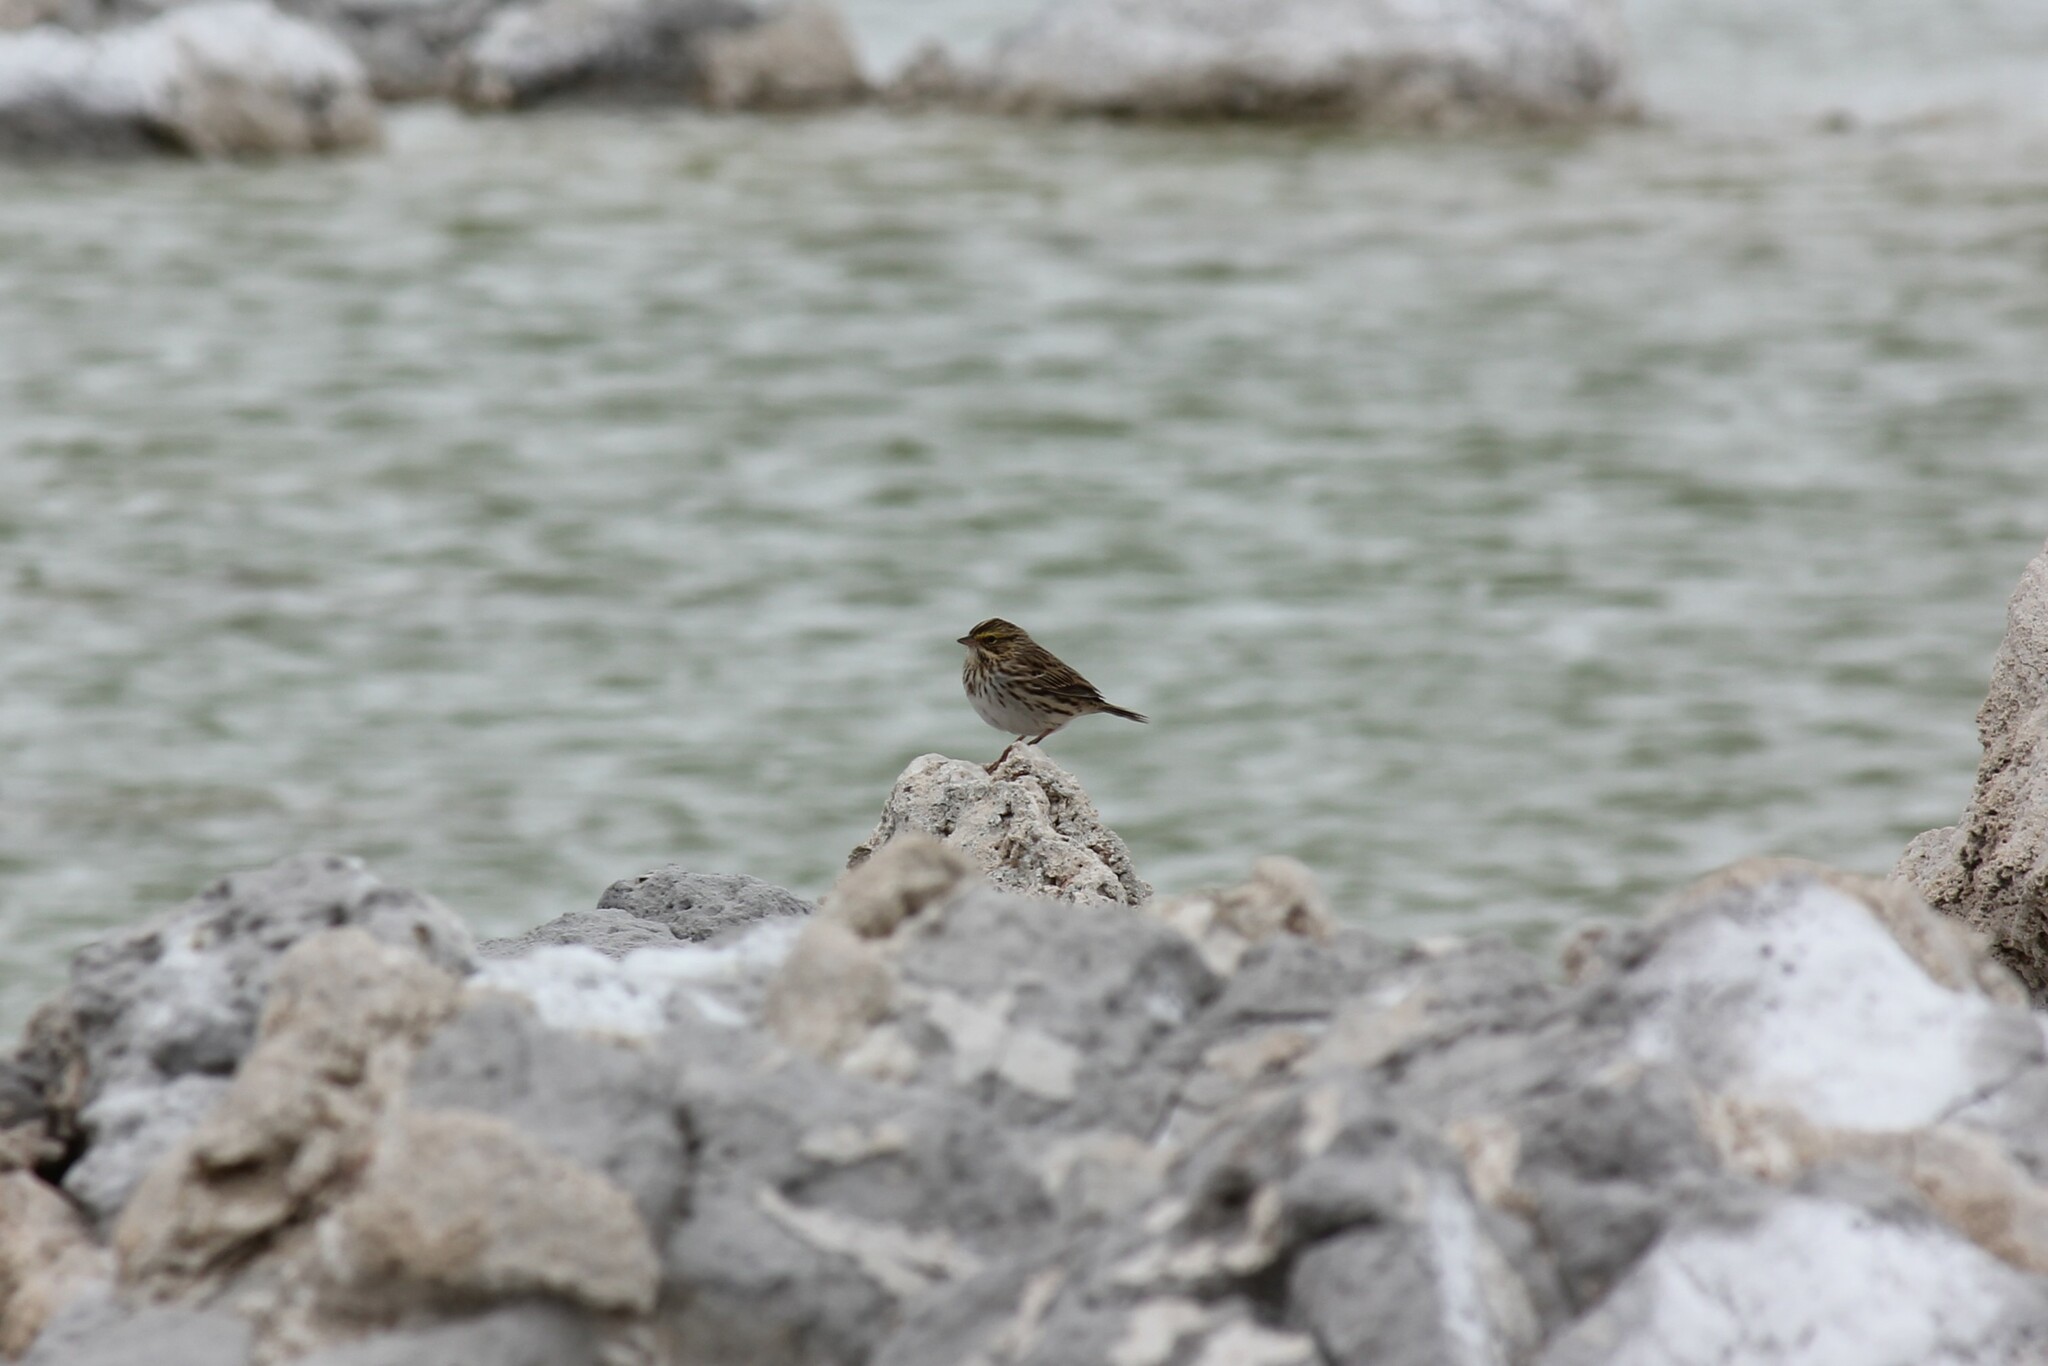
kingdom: Animalia
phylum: Chordata
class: Aves
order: Passeriformes
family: Passerellidae
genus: Passerculus
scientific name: Passerculus sandwichensis
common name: Savannah sparrow
